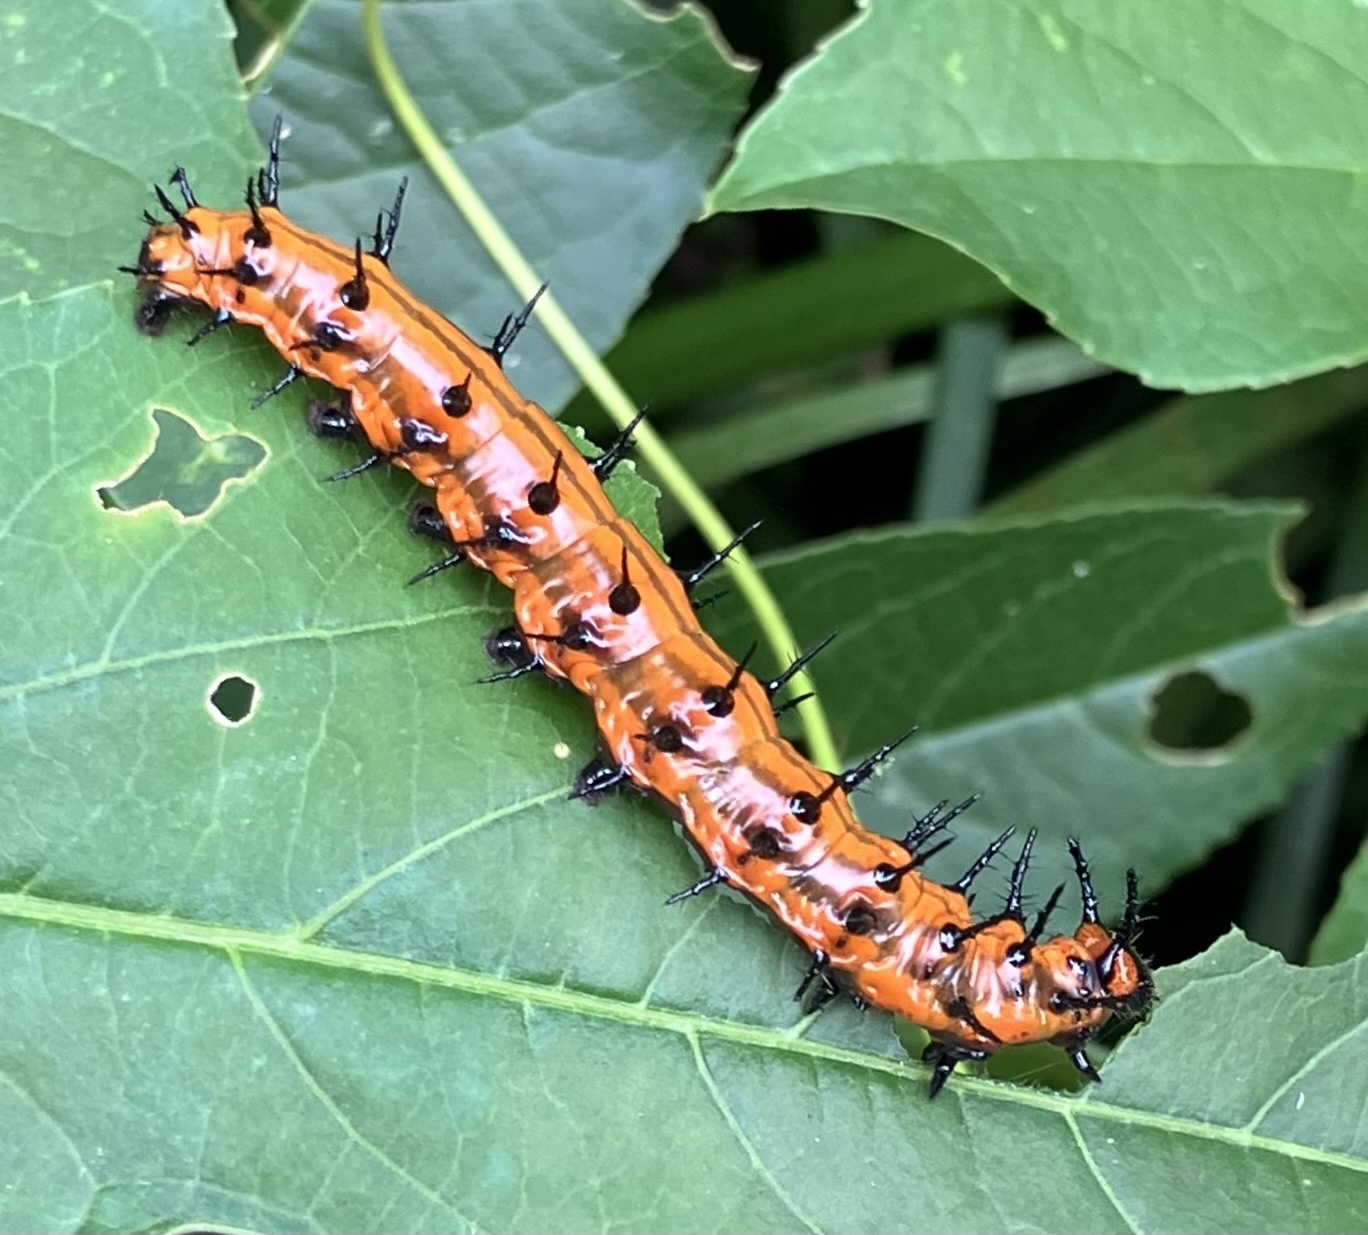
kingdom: Animalia
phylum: Arthropoda
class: Insecta
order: Lepidoptera
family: Nymphalidae
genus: Dione
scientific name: Dione vanillae
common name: Gulf fritillary
